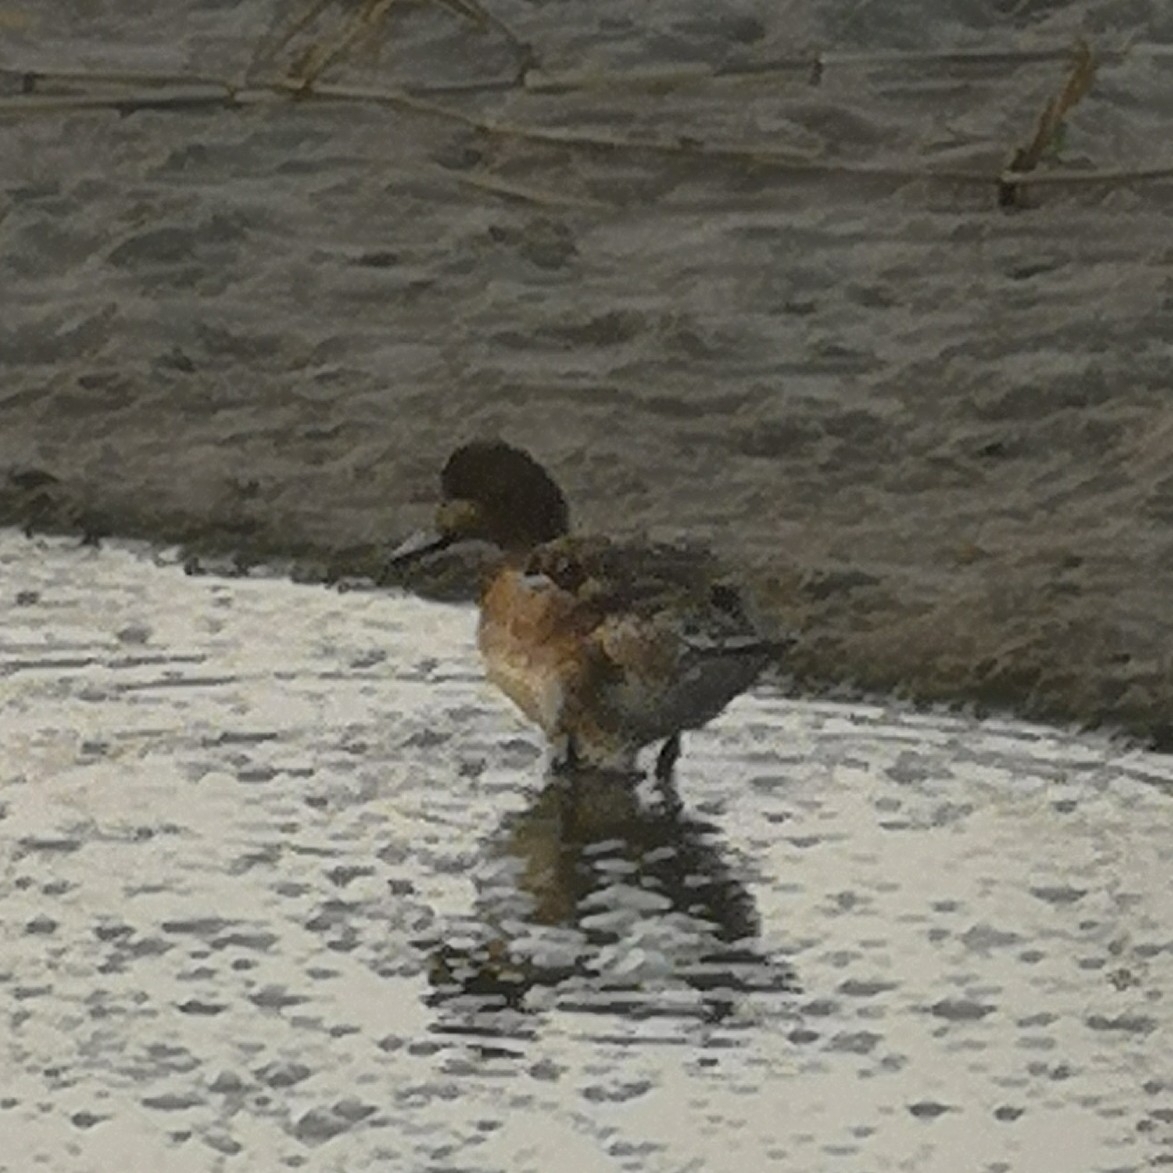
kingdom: Animalia
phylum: Chordata
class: Aves
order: Anseriformes
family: Anatidae
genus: Mareca
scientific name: Mareca penelope
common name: Eurasian wigeon
